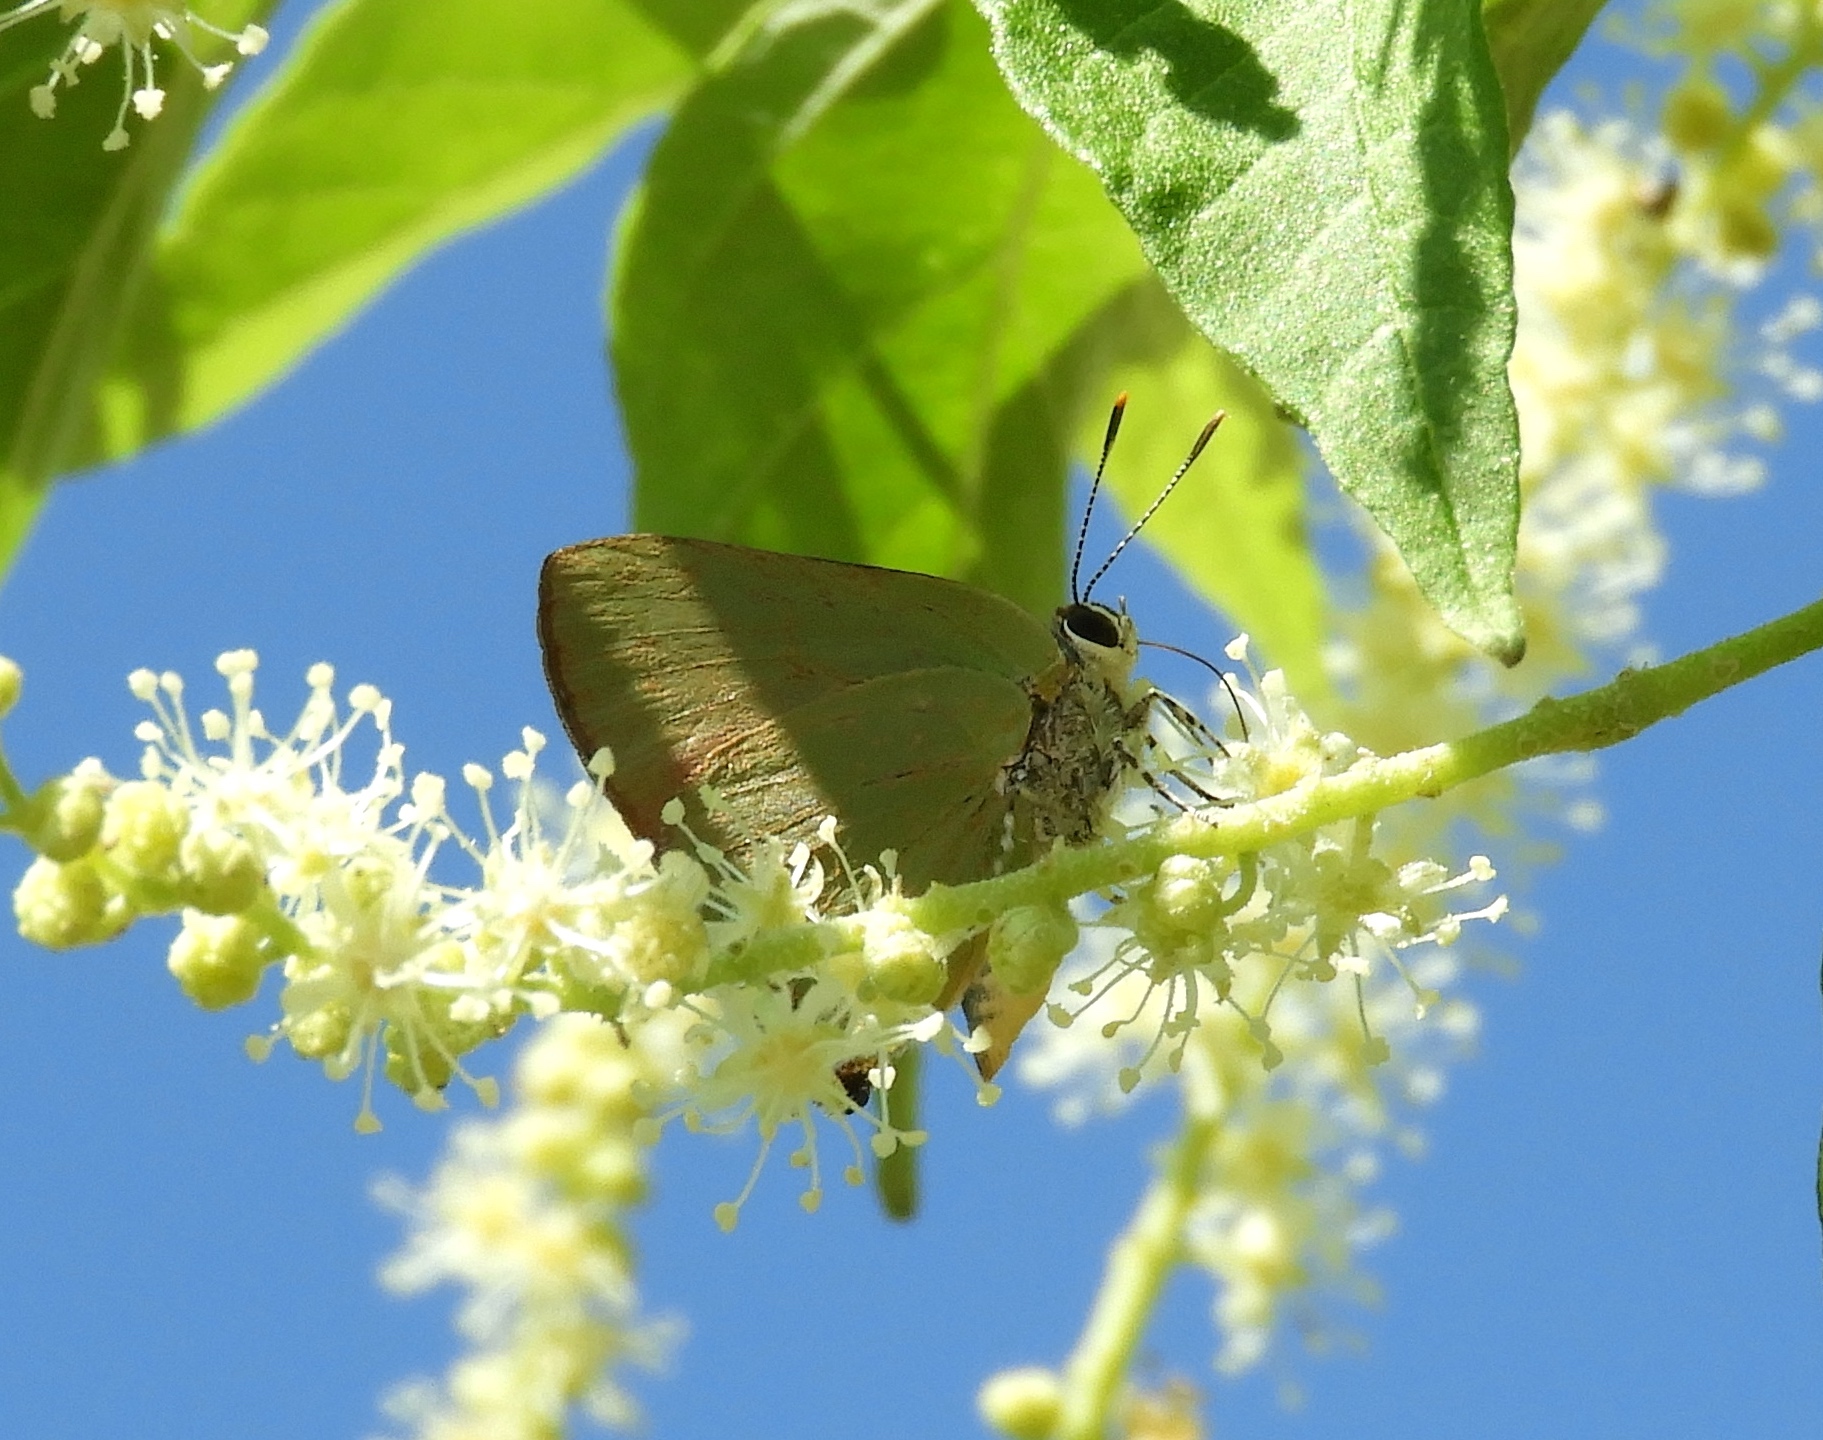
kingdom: Animalia
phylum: Arthropoda
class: Insecta
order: Lepidoptera
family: Lycaenidae
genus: Cyanophrys
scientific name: Cyanophrys
